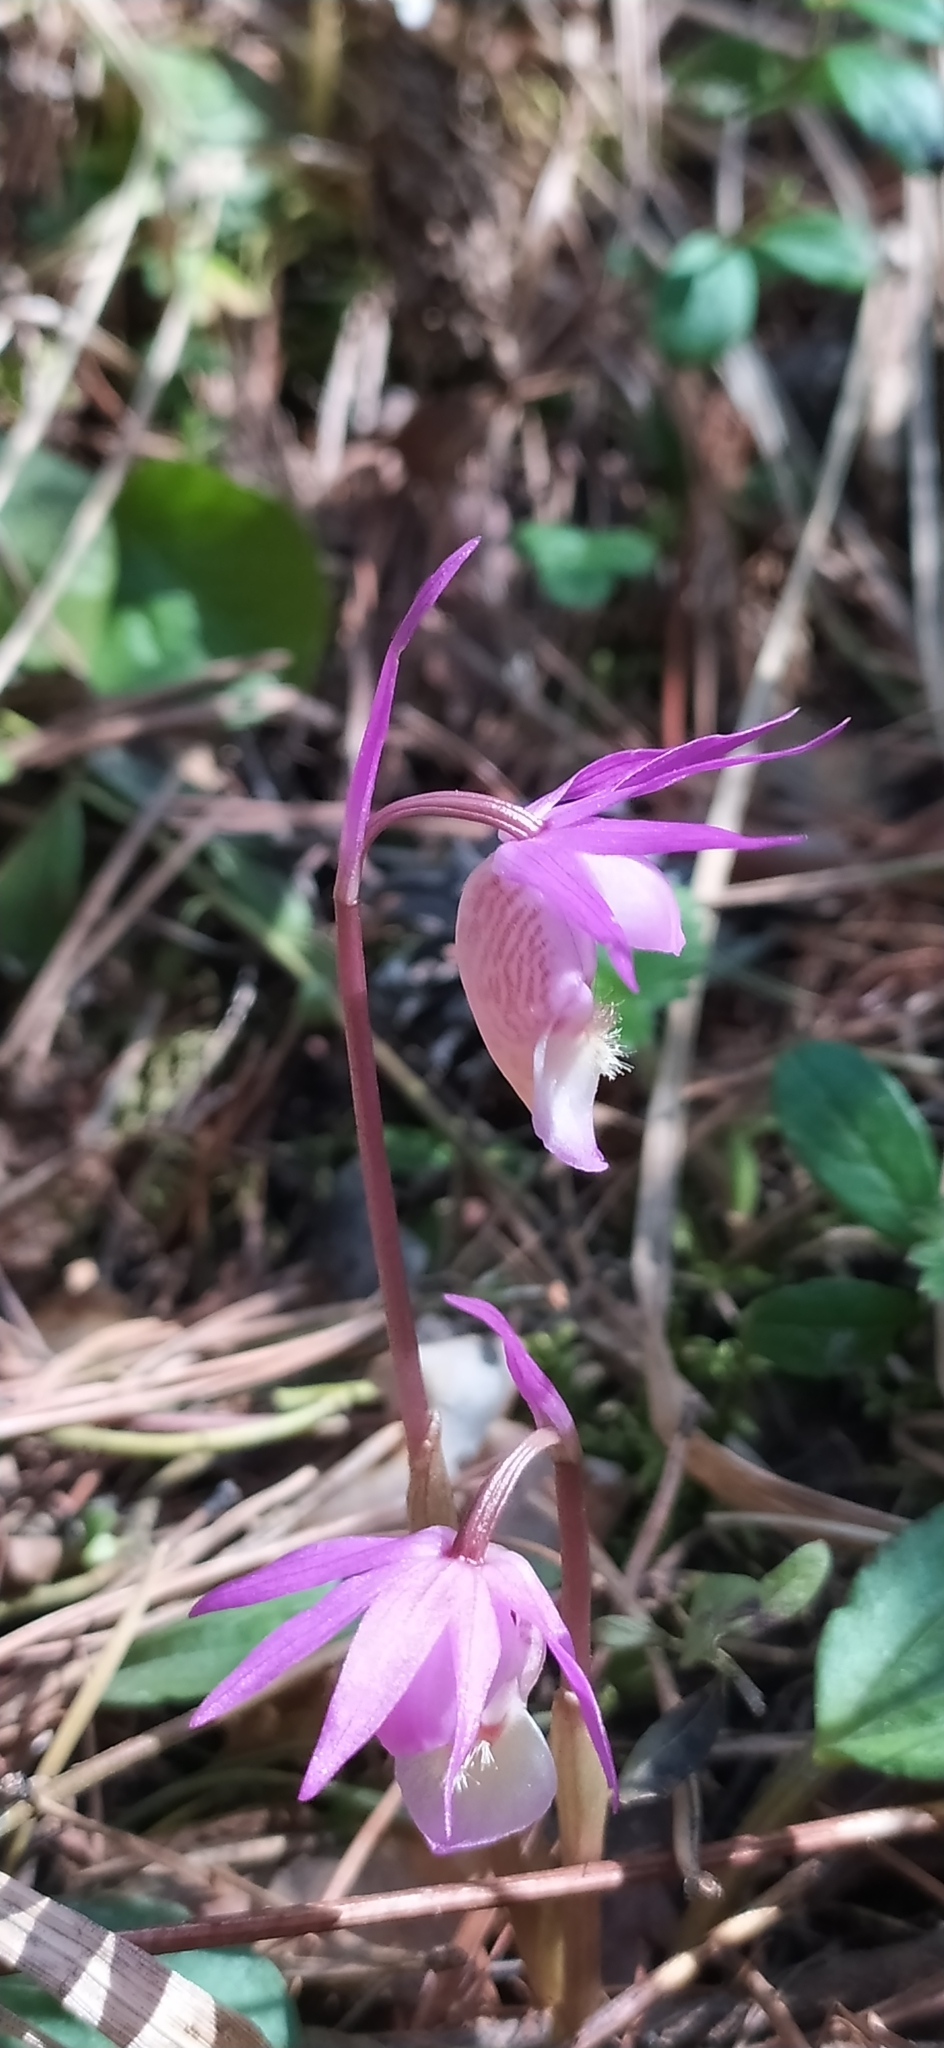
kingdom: Plantae
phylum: Tracheophyta
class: Liliopsida
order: Asparagales
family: Orchidaceae
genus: Calypso
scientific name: Calypso bulbosa
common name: Calypso
